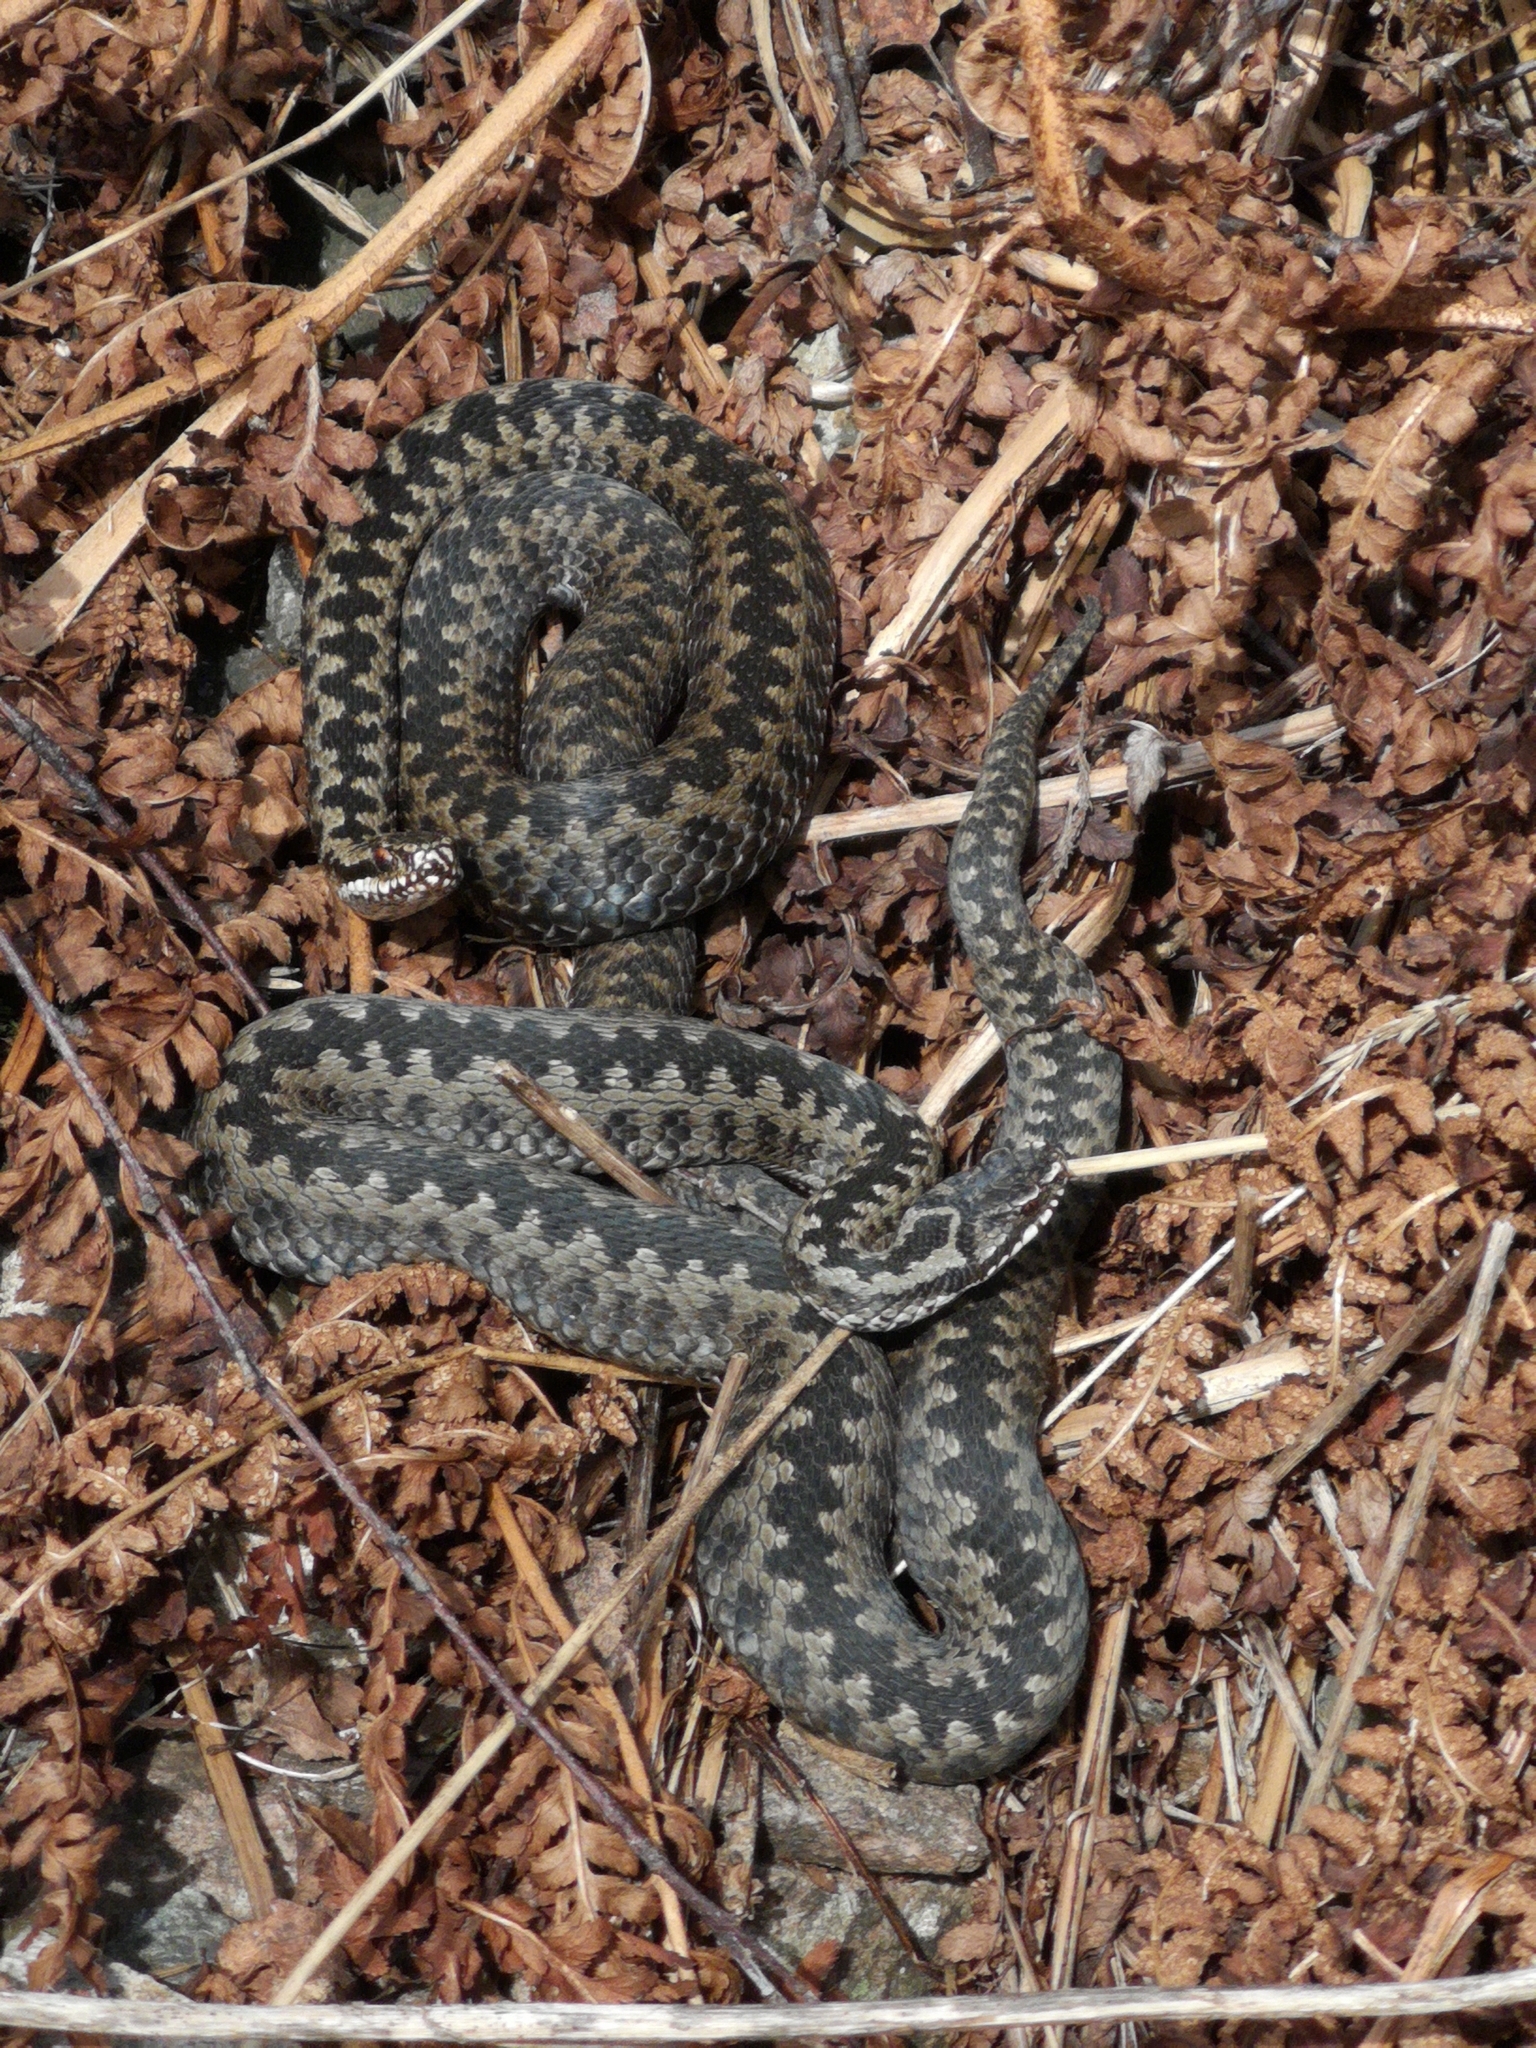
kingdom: Animalia
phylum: Chordata
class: Squamata
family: Viperidae
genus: Vipera
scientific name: Vipera berus
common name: Adder
